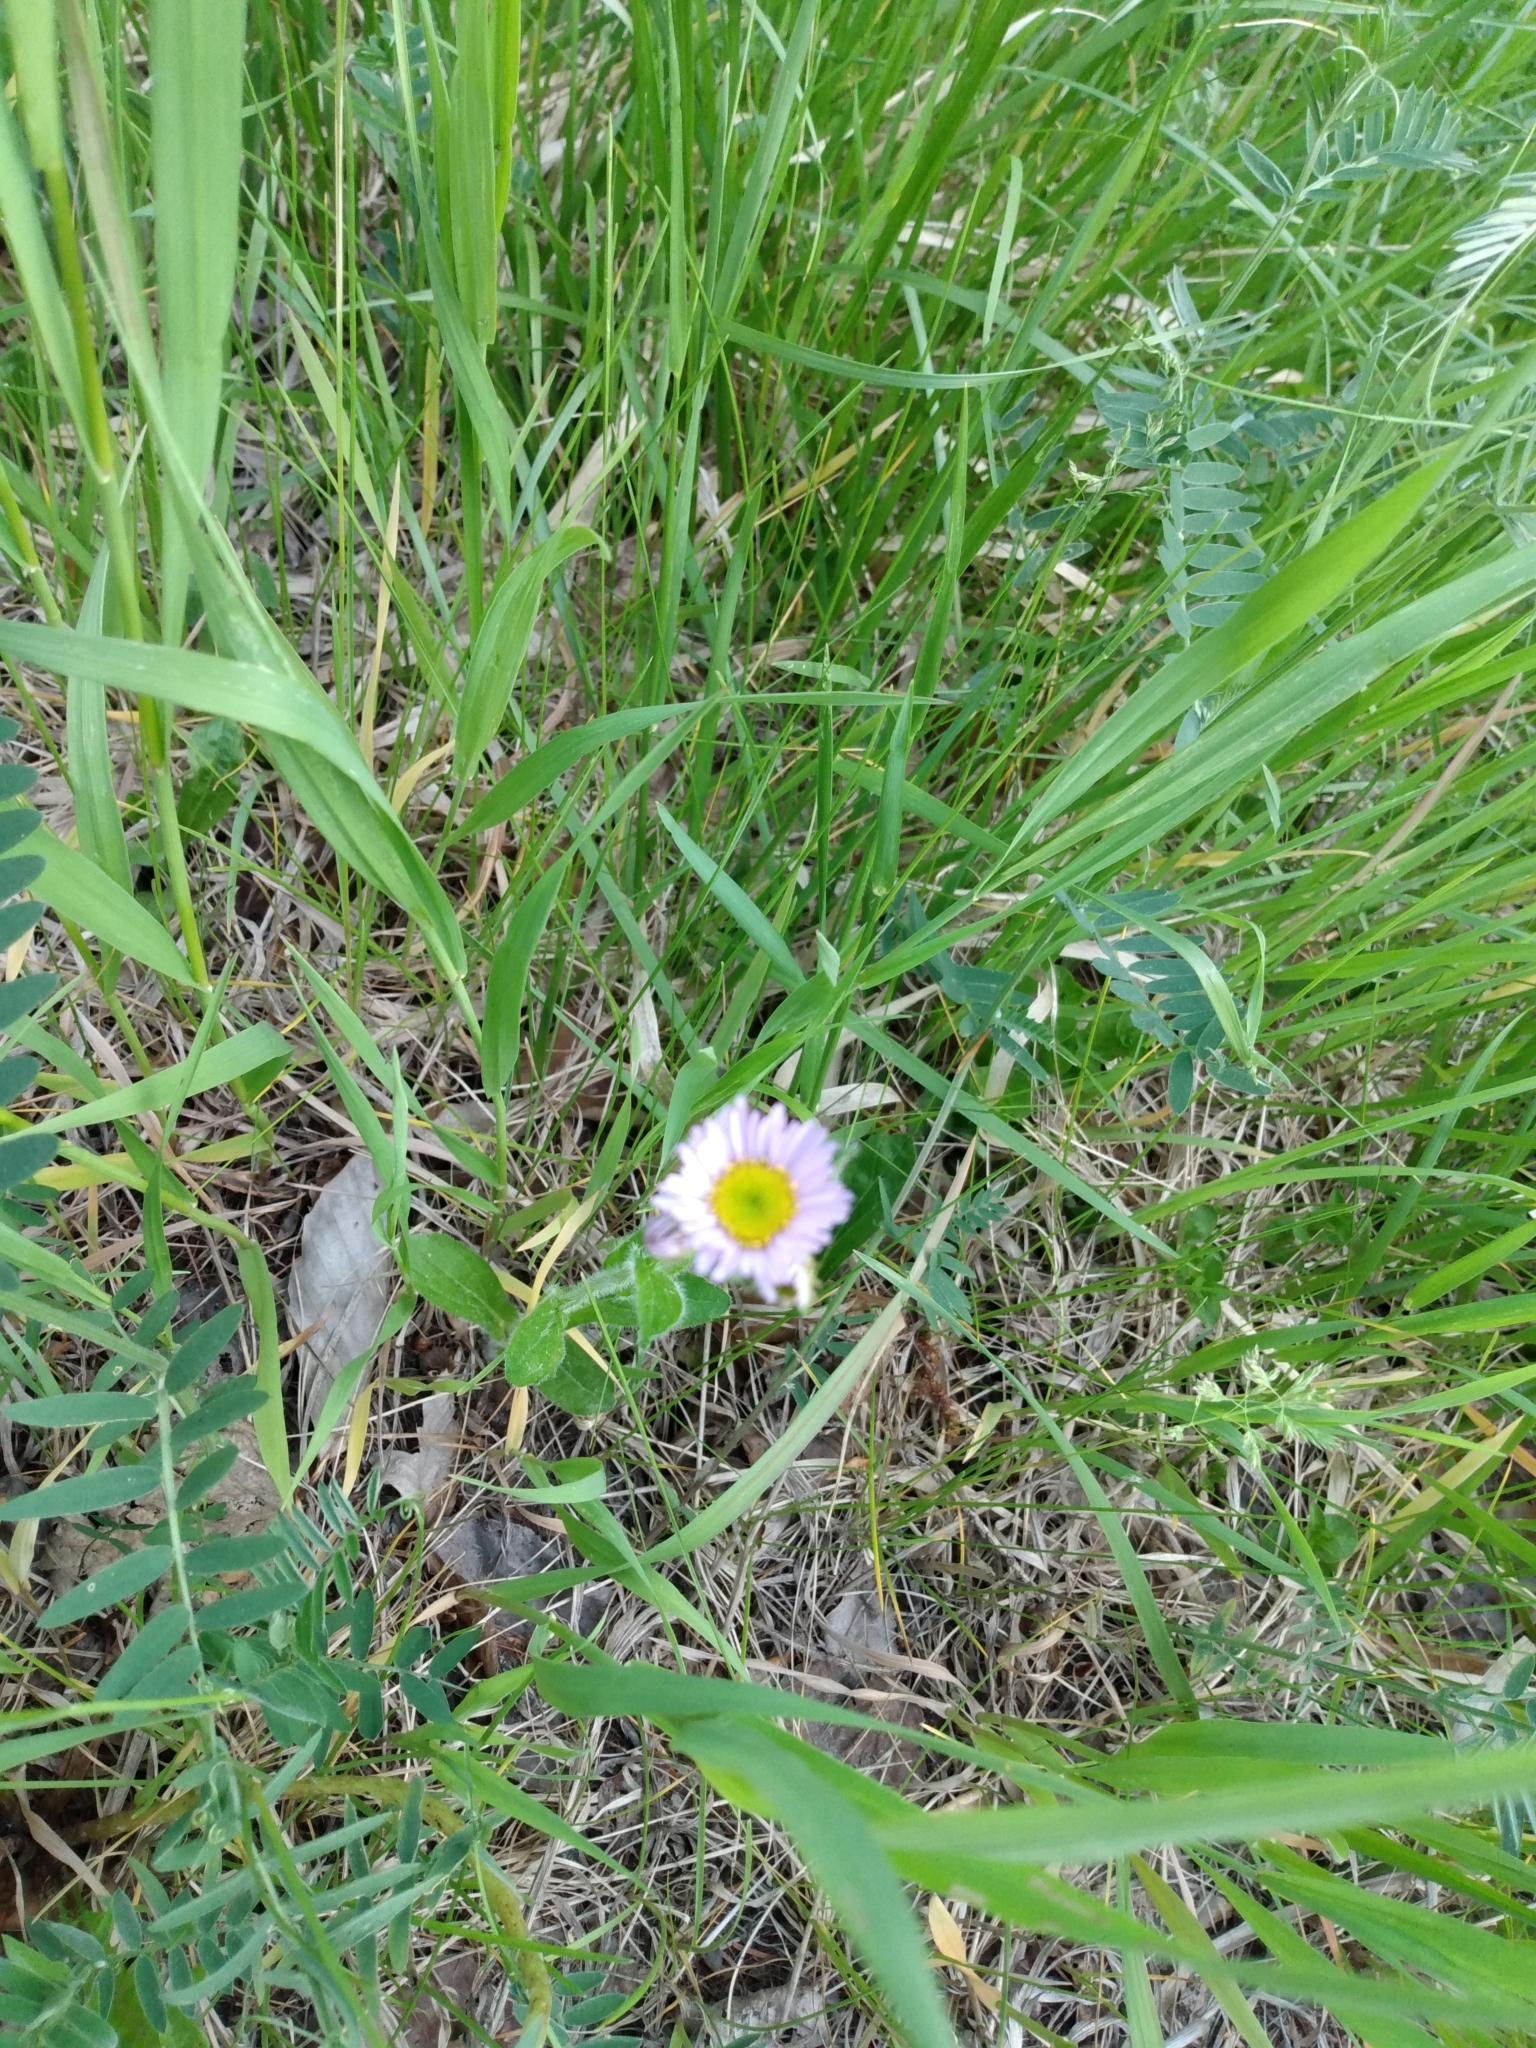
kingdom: Plantae
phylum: Tracheophyta
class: Magnoliopsida
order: Asterales
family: Asteraceae
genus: Erigeron
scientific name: Erigeron pulchellus
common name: Hairy fleabane
